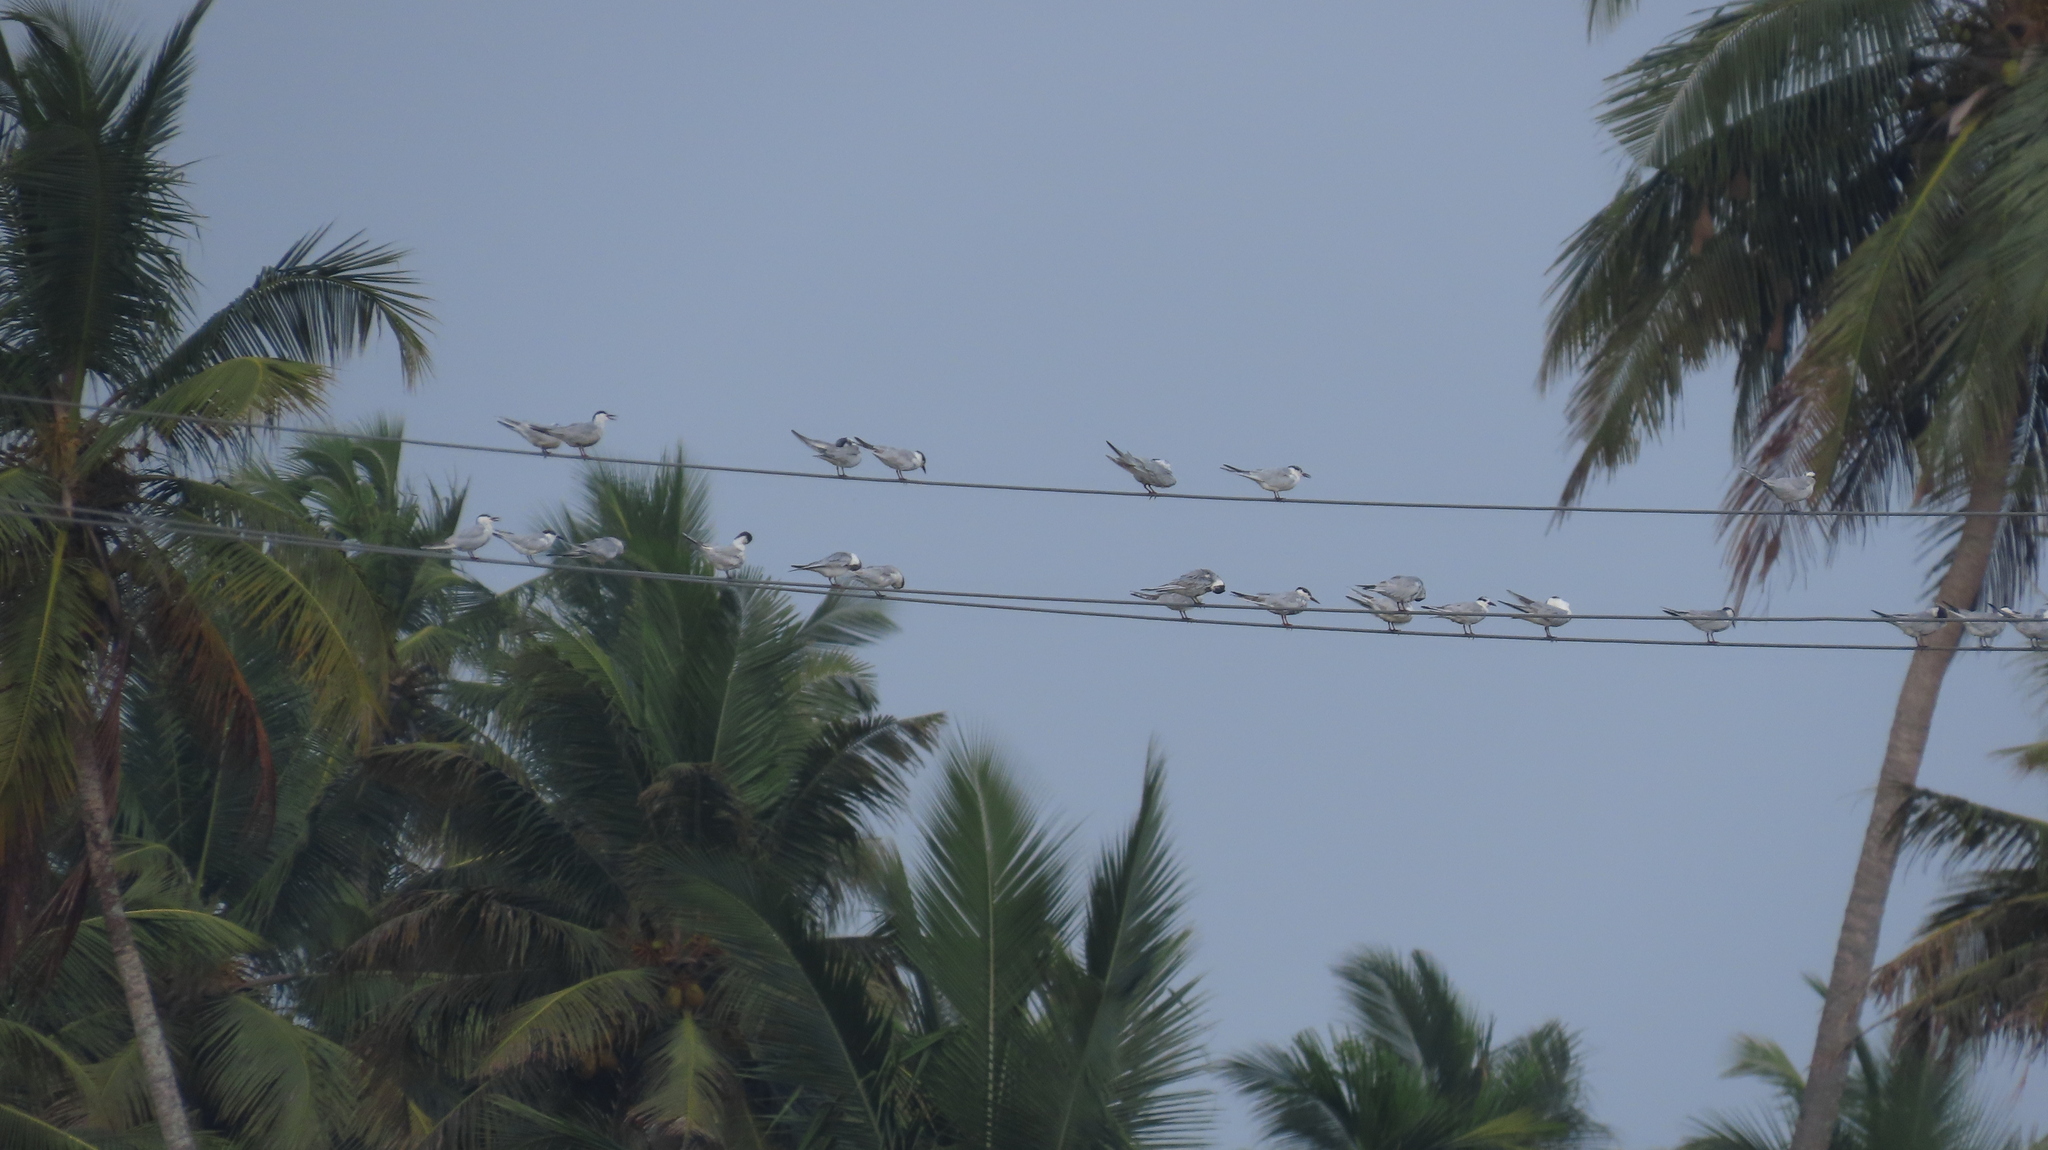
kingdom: Animalia
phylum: Chordata
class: Aves
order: Charadriiformes
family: Laridae
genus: Chlidonias
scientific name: Chlidonias hybrida
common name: Whiskered tern
